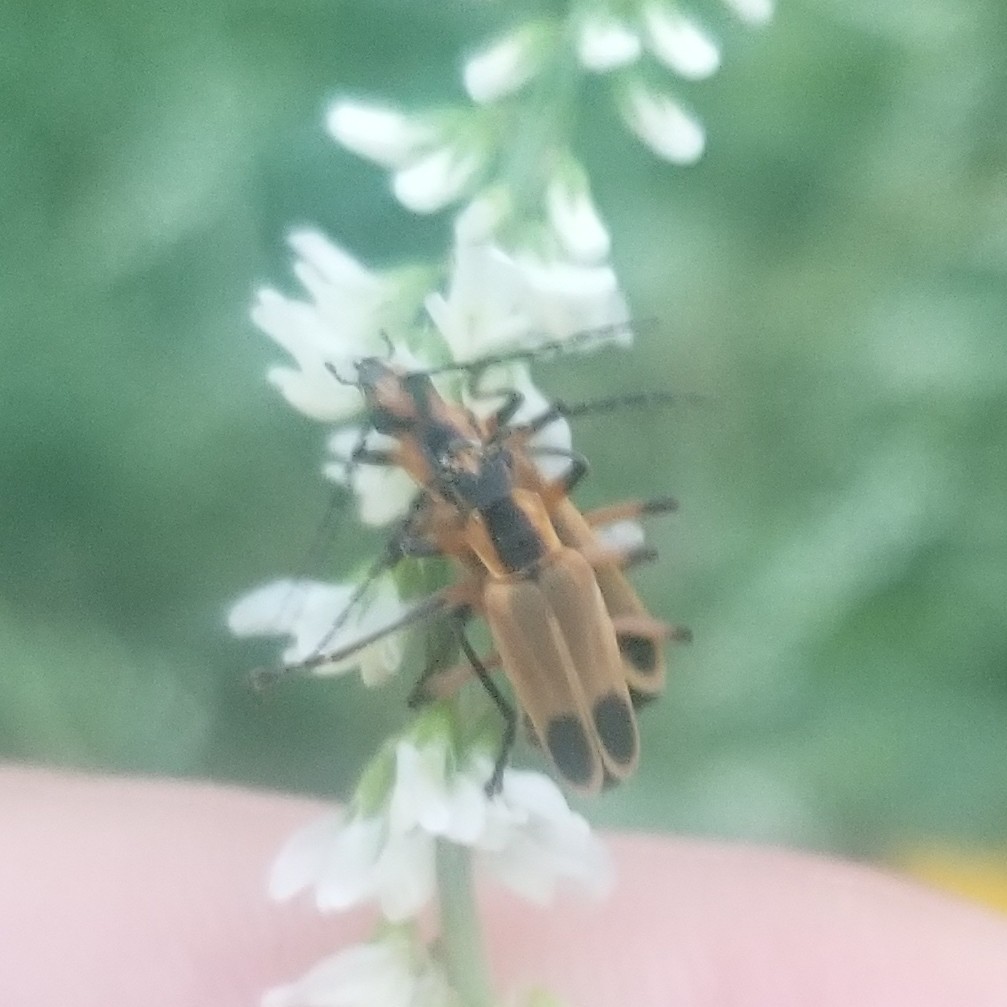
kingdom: Animalia
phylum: Arthropoda
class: Insecta
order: Coleoptera
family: Cantharidae
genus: Chauliognathus
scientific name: Chauliognathus marginatus
